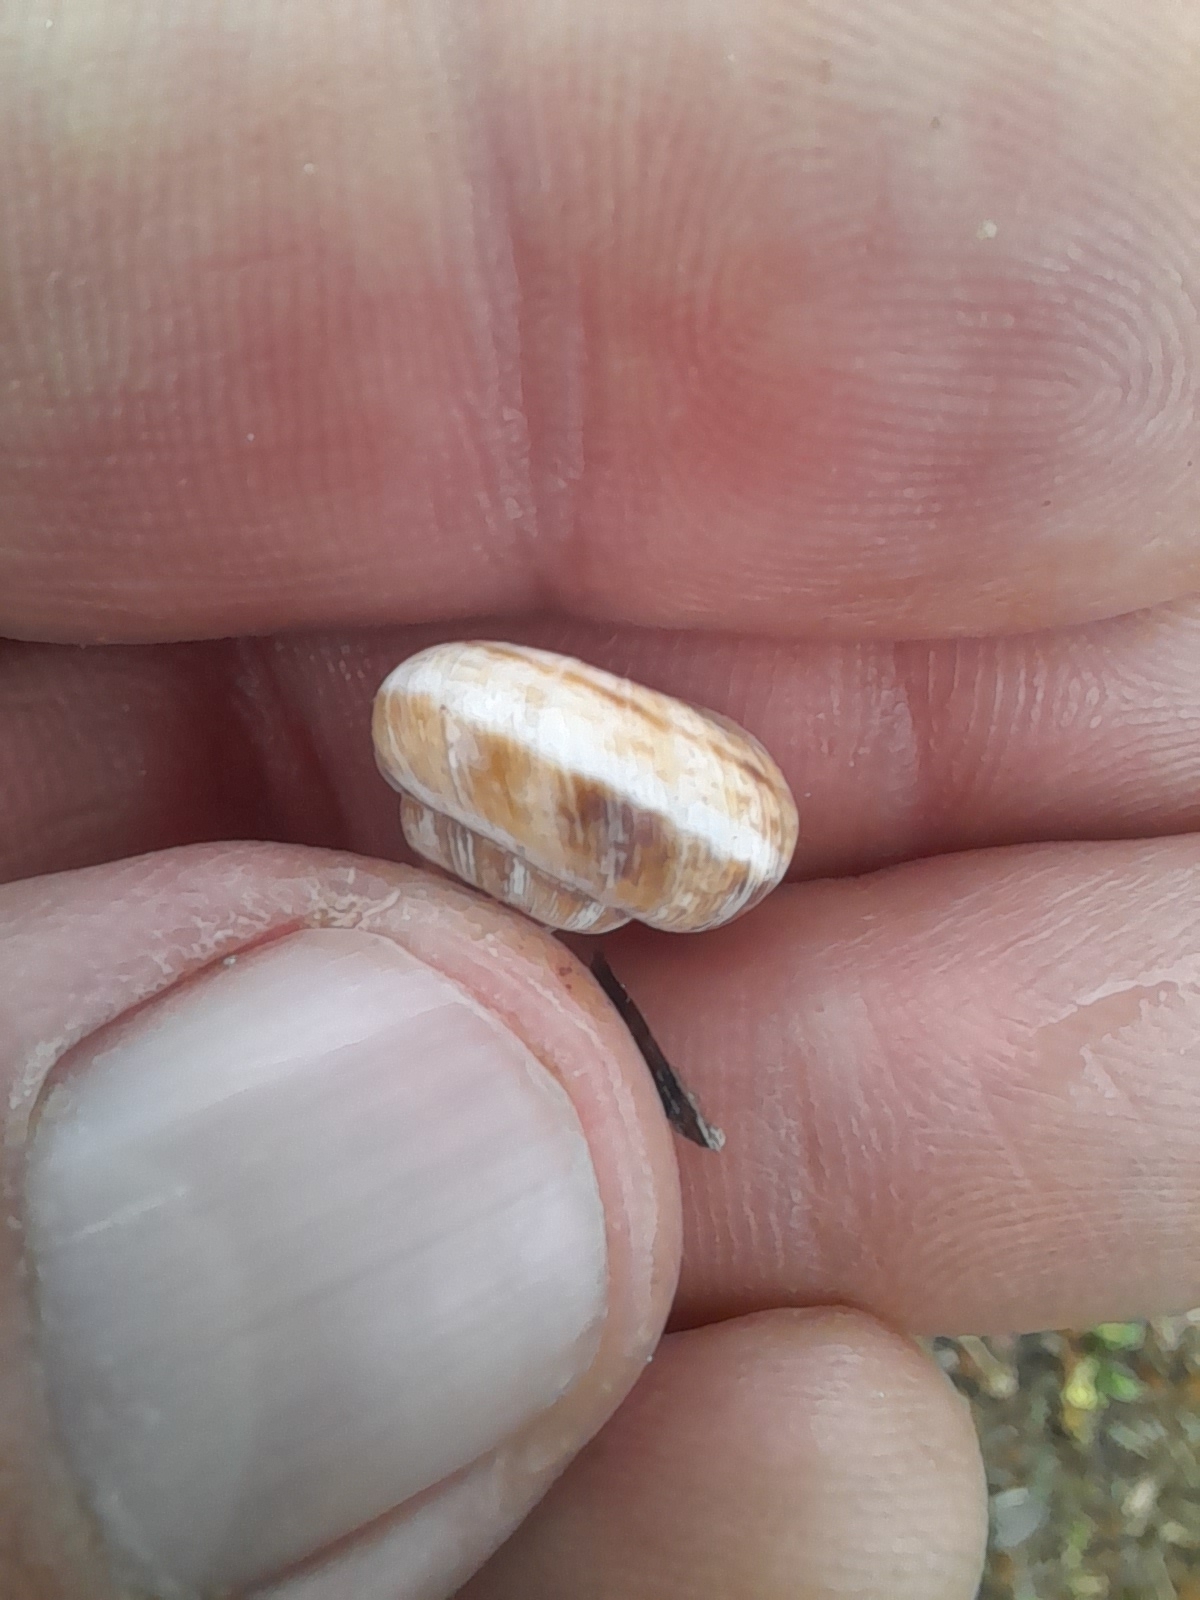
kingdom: Animalia
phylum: Mollusca
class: Gastropoda
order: Stylommatophora
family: Geomitridae
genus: Cernuella
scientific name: Cernuella cisalpina
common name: Maritime gardensnail
